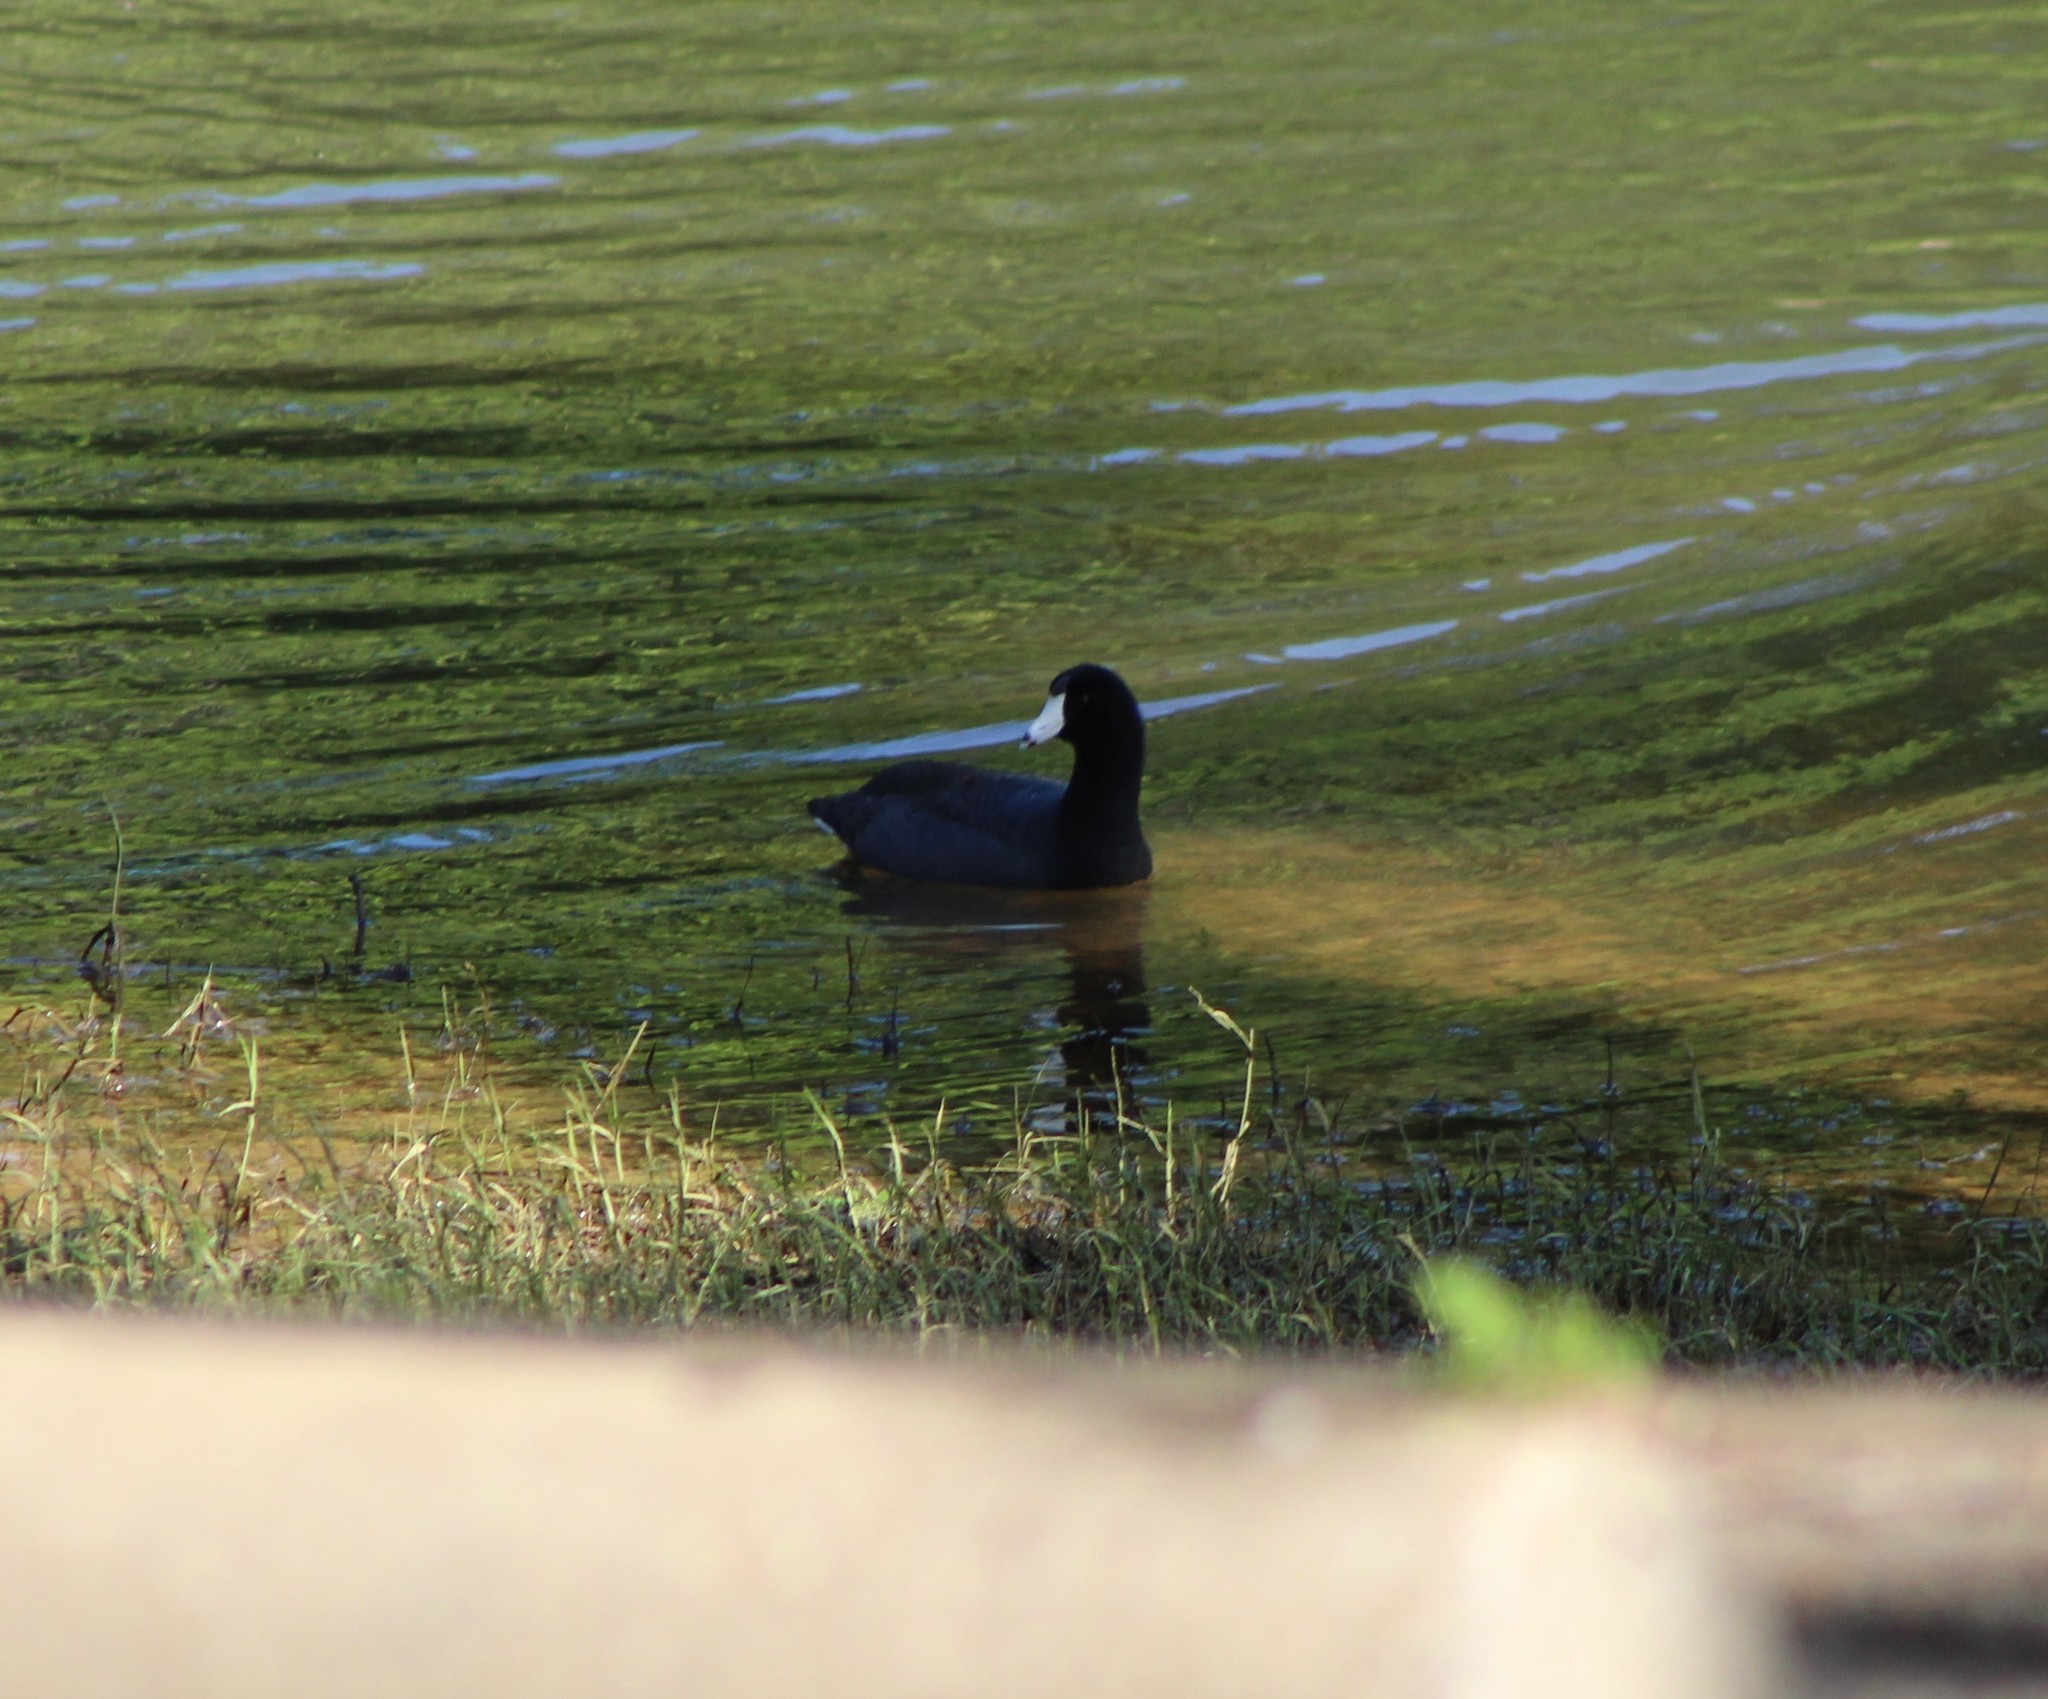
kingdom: Animalia
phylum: Chordata
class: Aves
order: Gruiformes
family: Rallidae
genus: Fulica
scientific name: Fulica americana
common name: American coot
